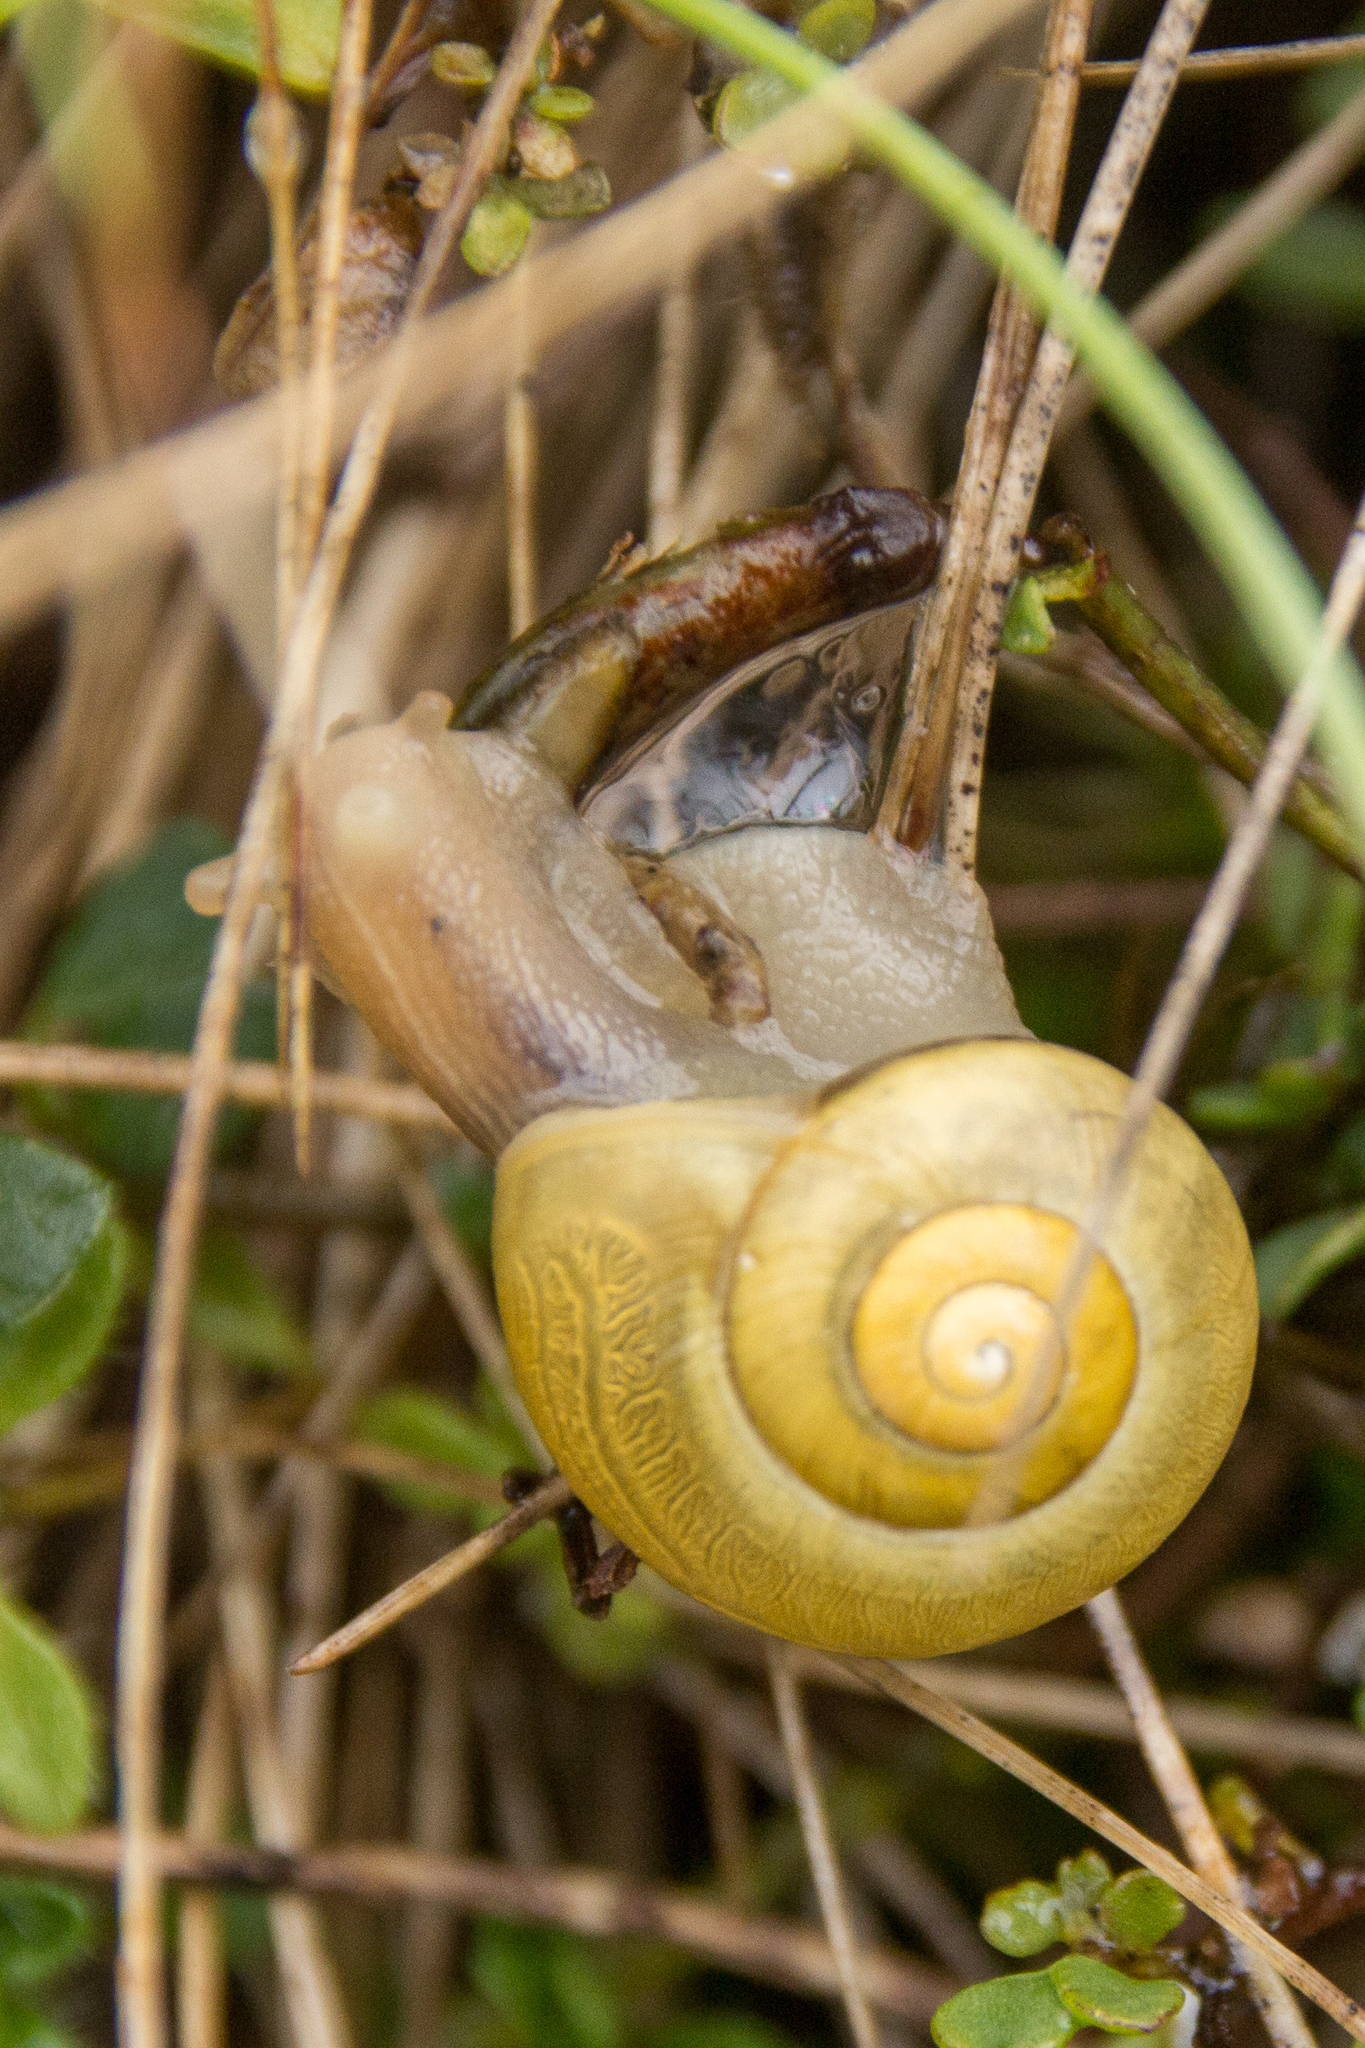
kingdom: Animalia
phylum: Mollusca
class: Gastropoda
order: Stylommatophora
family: Helicidae
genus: Cepaea
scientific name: Cepaea
